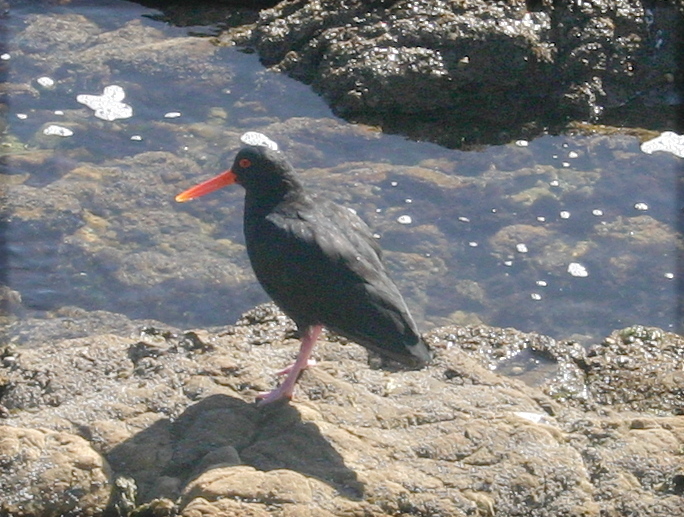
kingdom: Animalia
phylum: Chordata
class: Aves
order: Charadriiformes
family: Haematopodidae
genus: Haematopus
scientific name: Haematopus unicolor
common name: Variable oystercatcher
